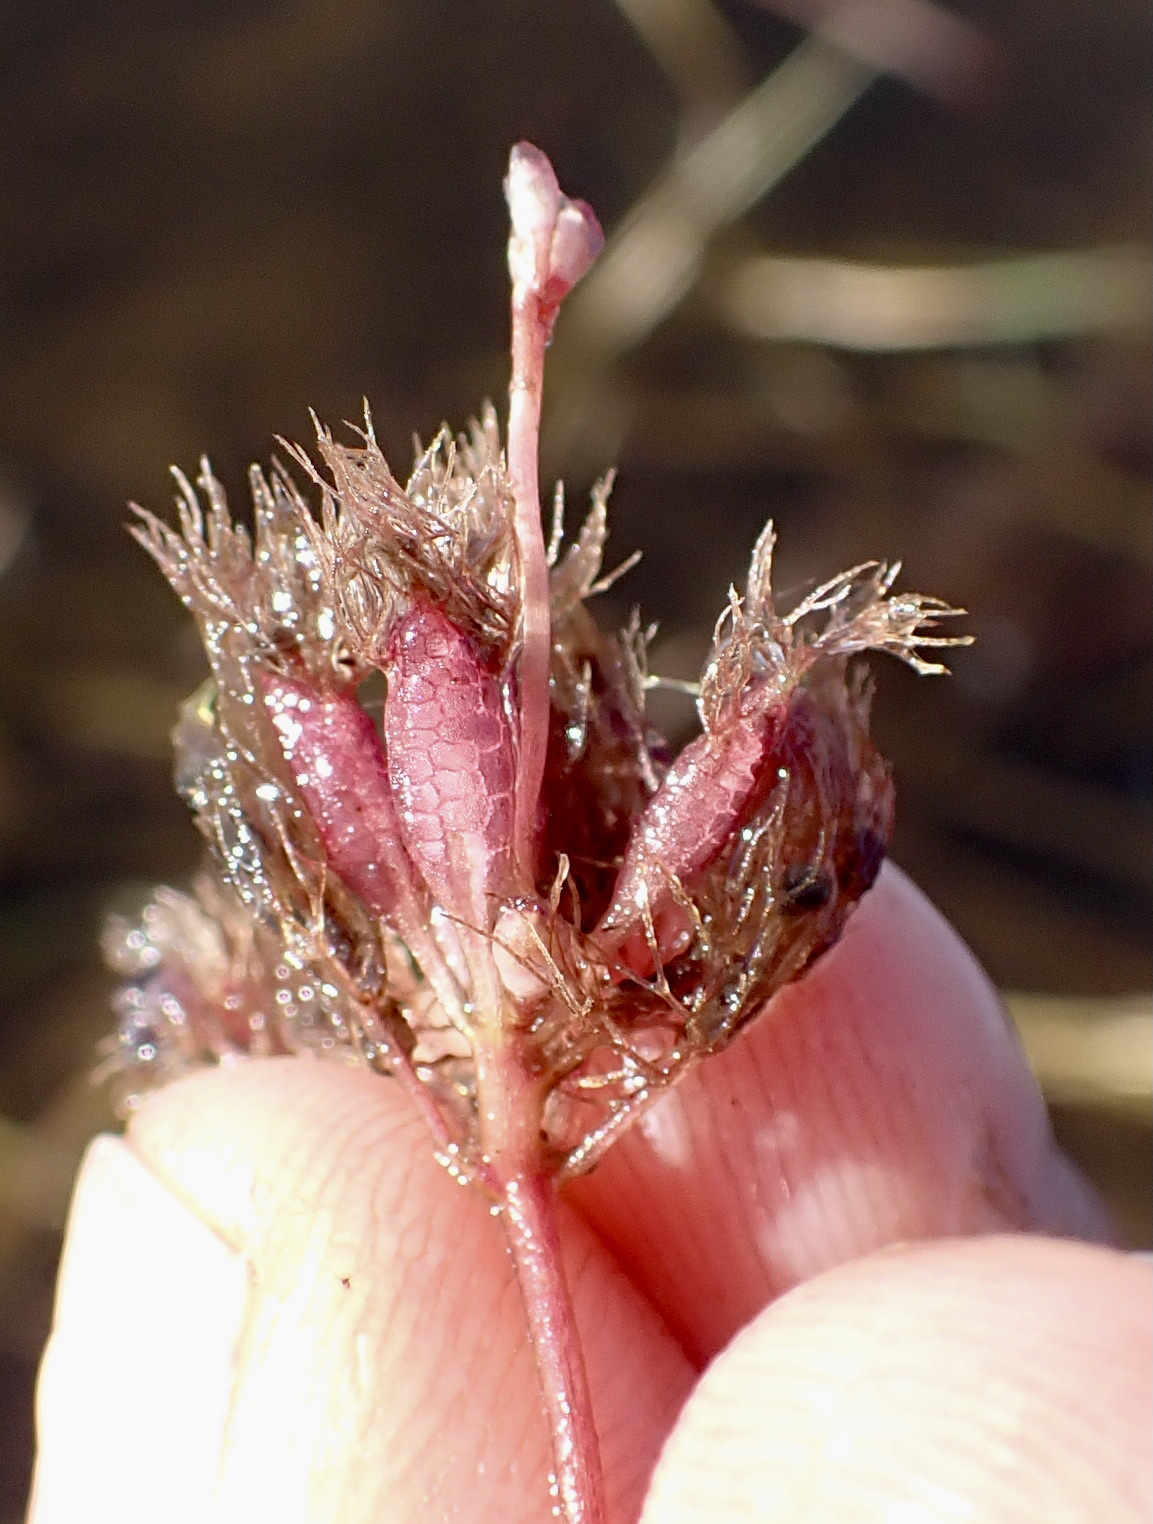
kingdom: Plantae
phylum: Tracheophyta
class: Magnoliopsida
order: Lamiales
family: Lentibulariaceae
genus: Utricularia
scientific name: Utricularia benjaminiana
